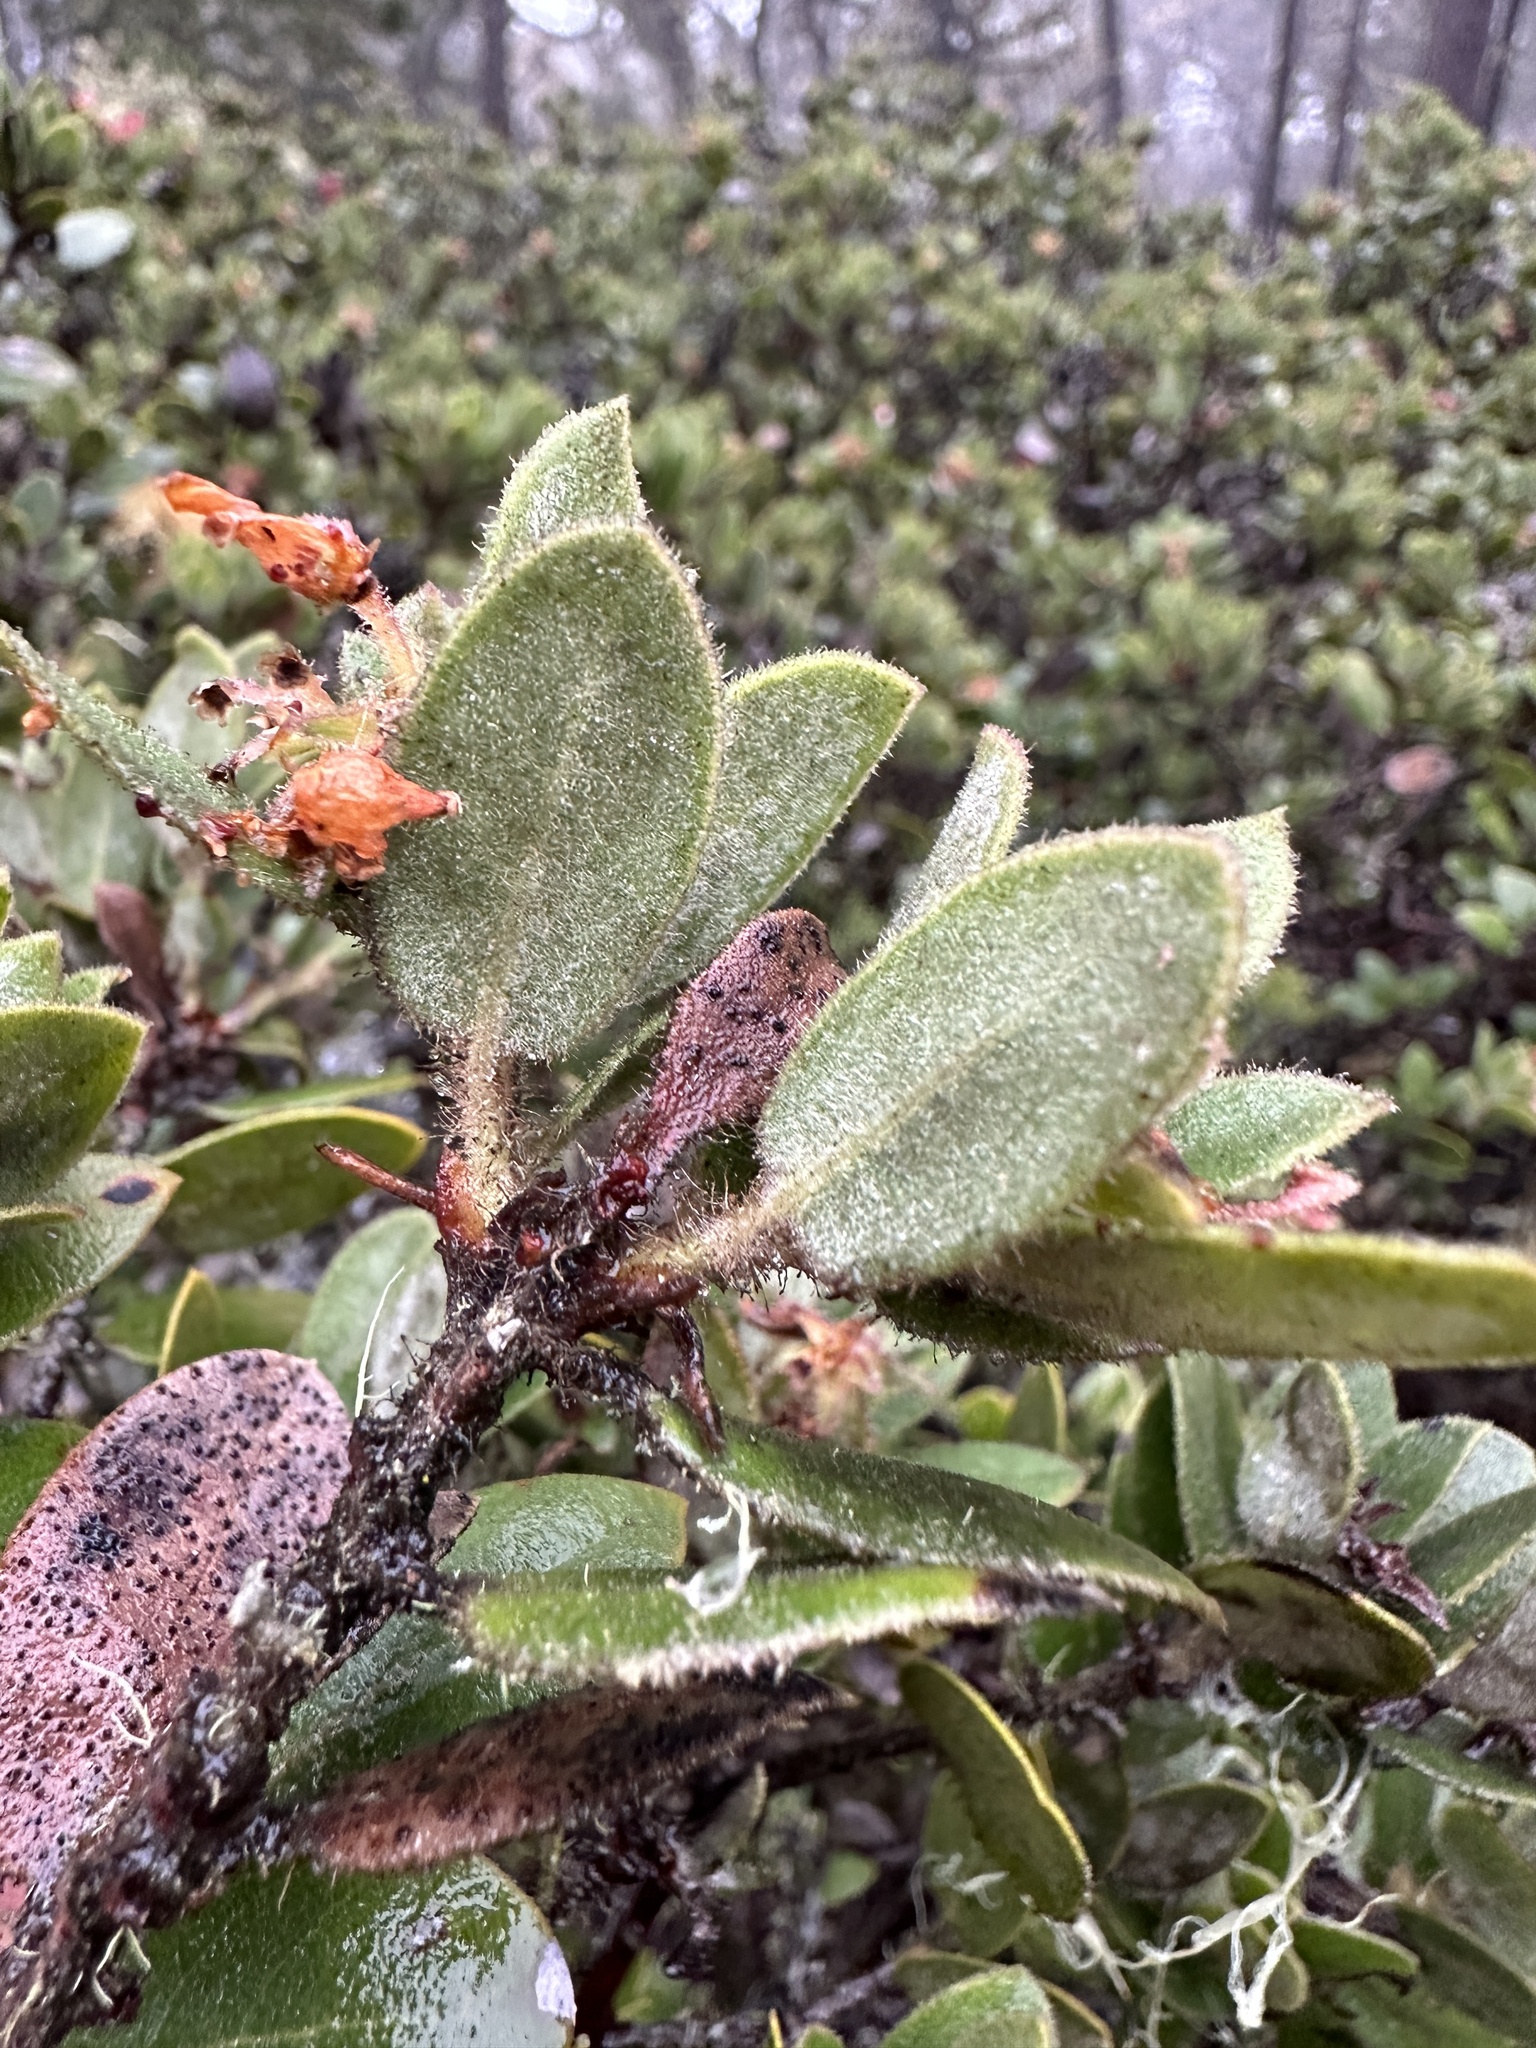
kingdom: Plantae
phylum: Tracheophyta
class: Magnoliopsida
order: Ericales
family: Ericaceae
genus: Arctostaphylos
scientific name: Arctostaphylos tomentosa
